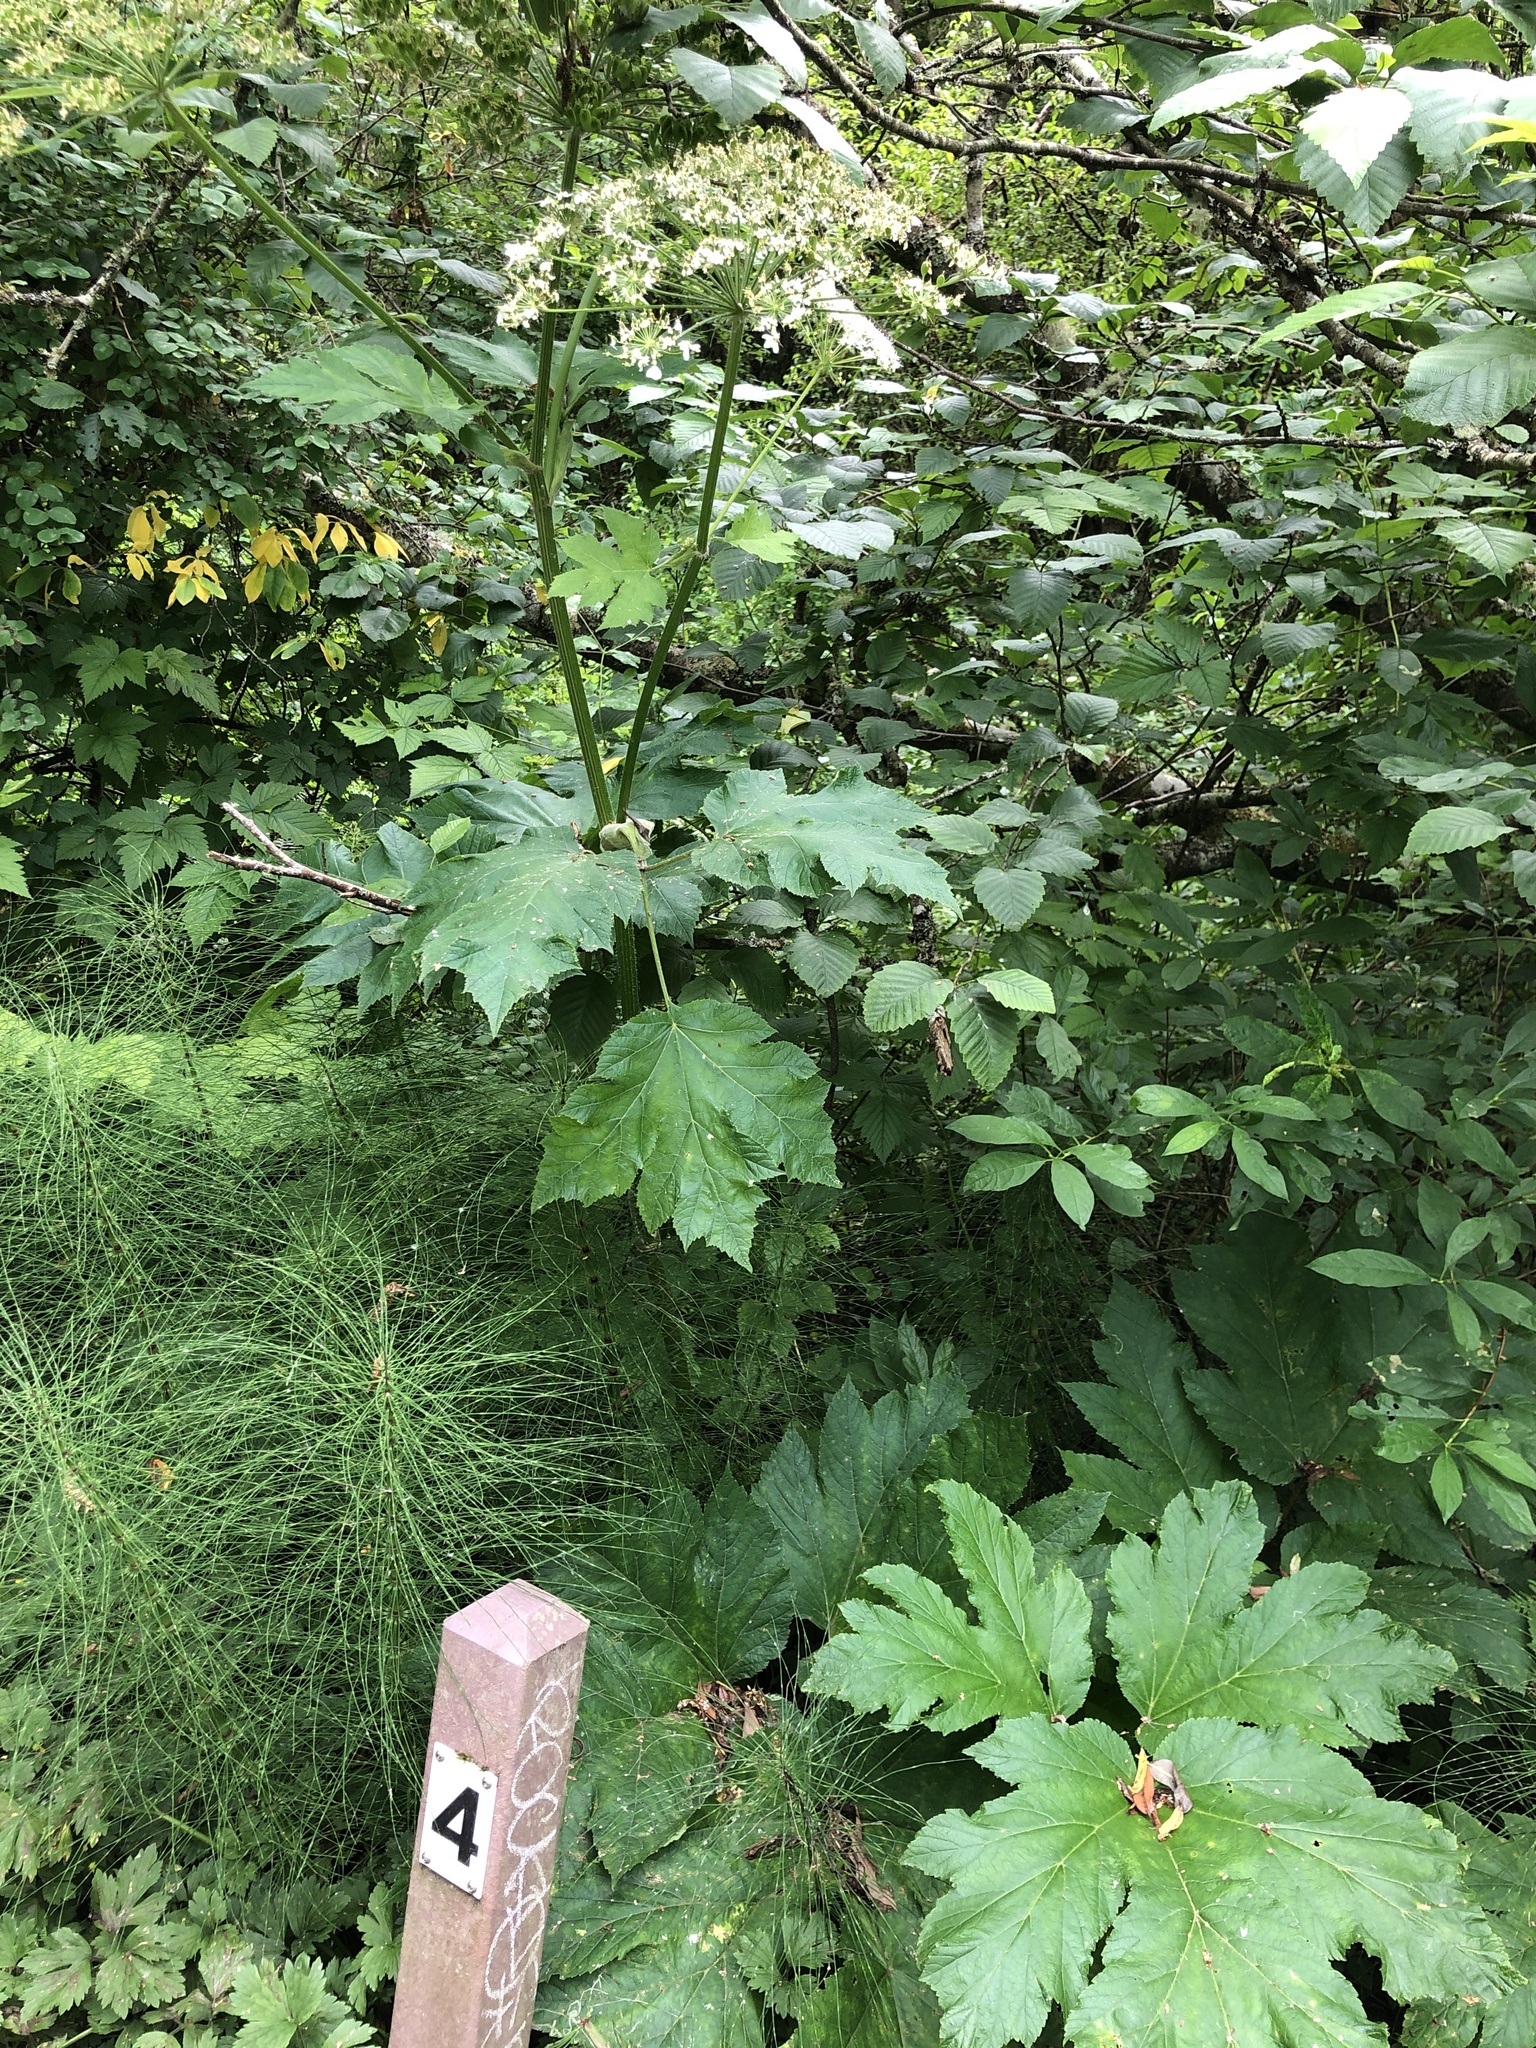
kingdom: Plantae
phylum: Tracheophyta
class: Magnoliopsida
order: Apiales
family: Apiaceae
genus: Heracleum
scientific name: Heracleum maximum
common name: American cow parsnip
